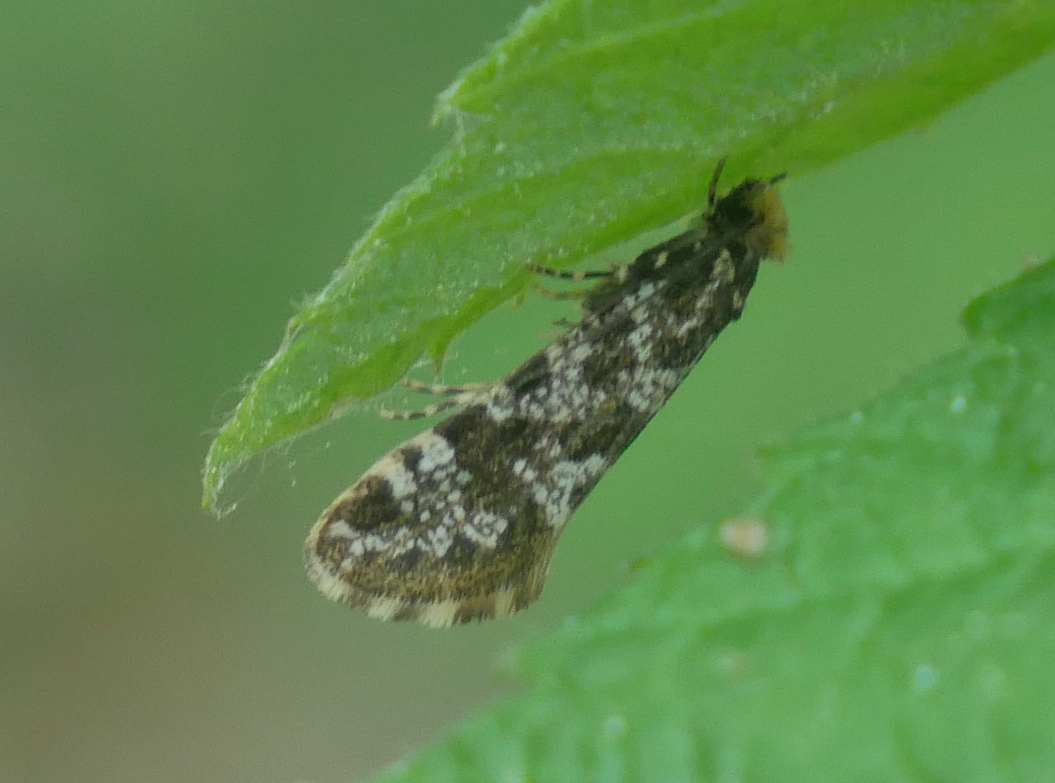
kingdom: Animalia
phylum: Arthropoda
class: Insecta
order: Lepidoptera
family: Tineidae
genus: Triaxomera
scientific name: Triaxomera parasitella
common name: Large brindled clothes
